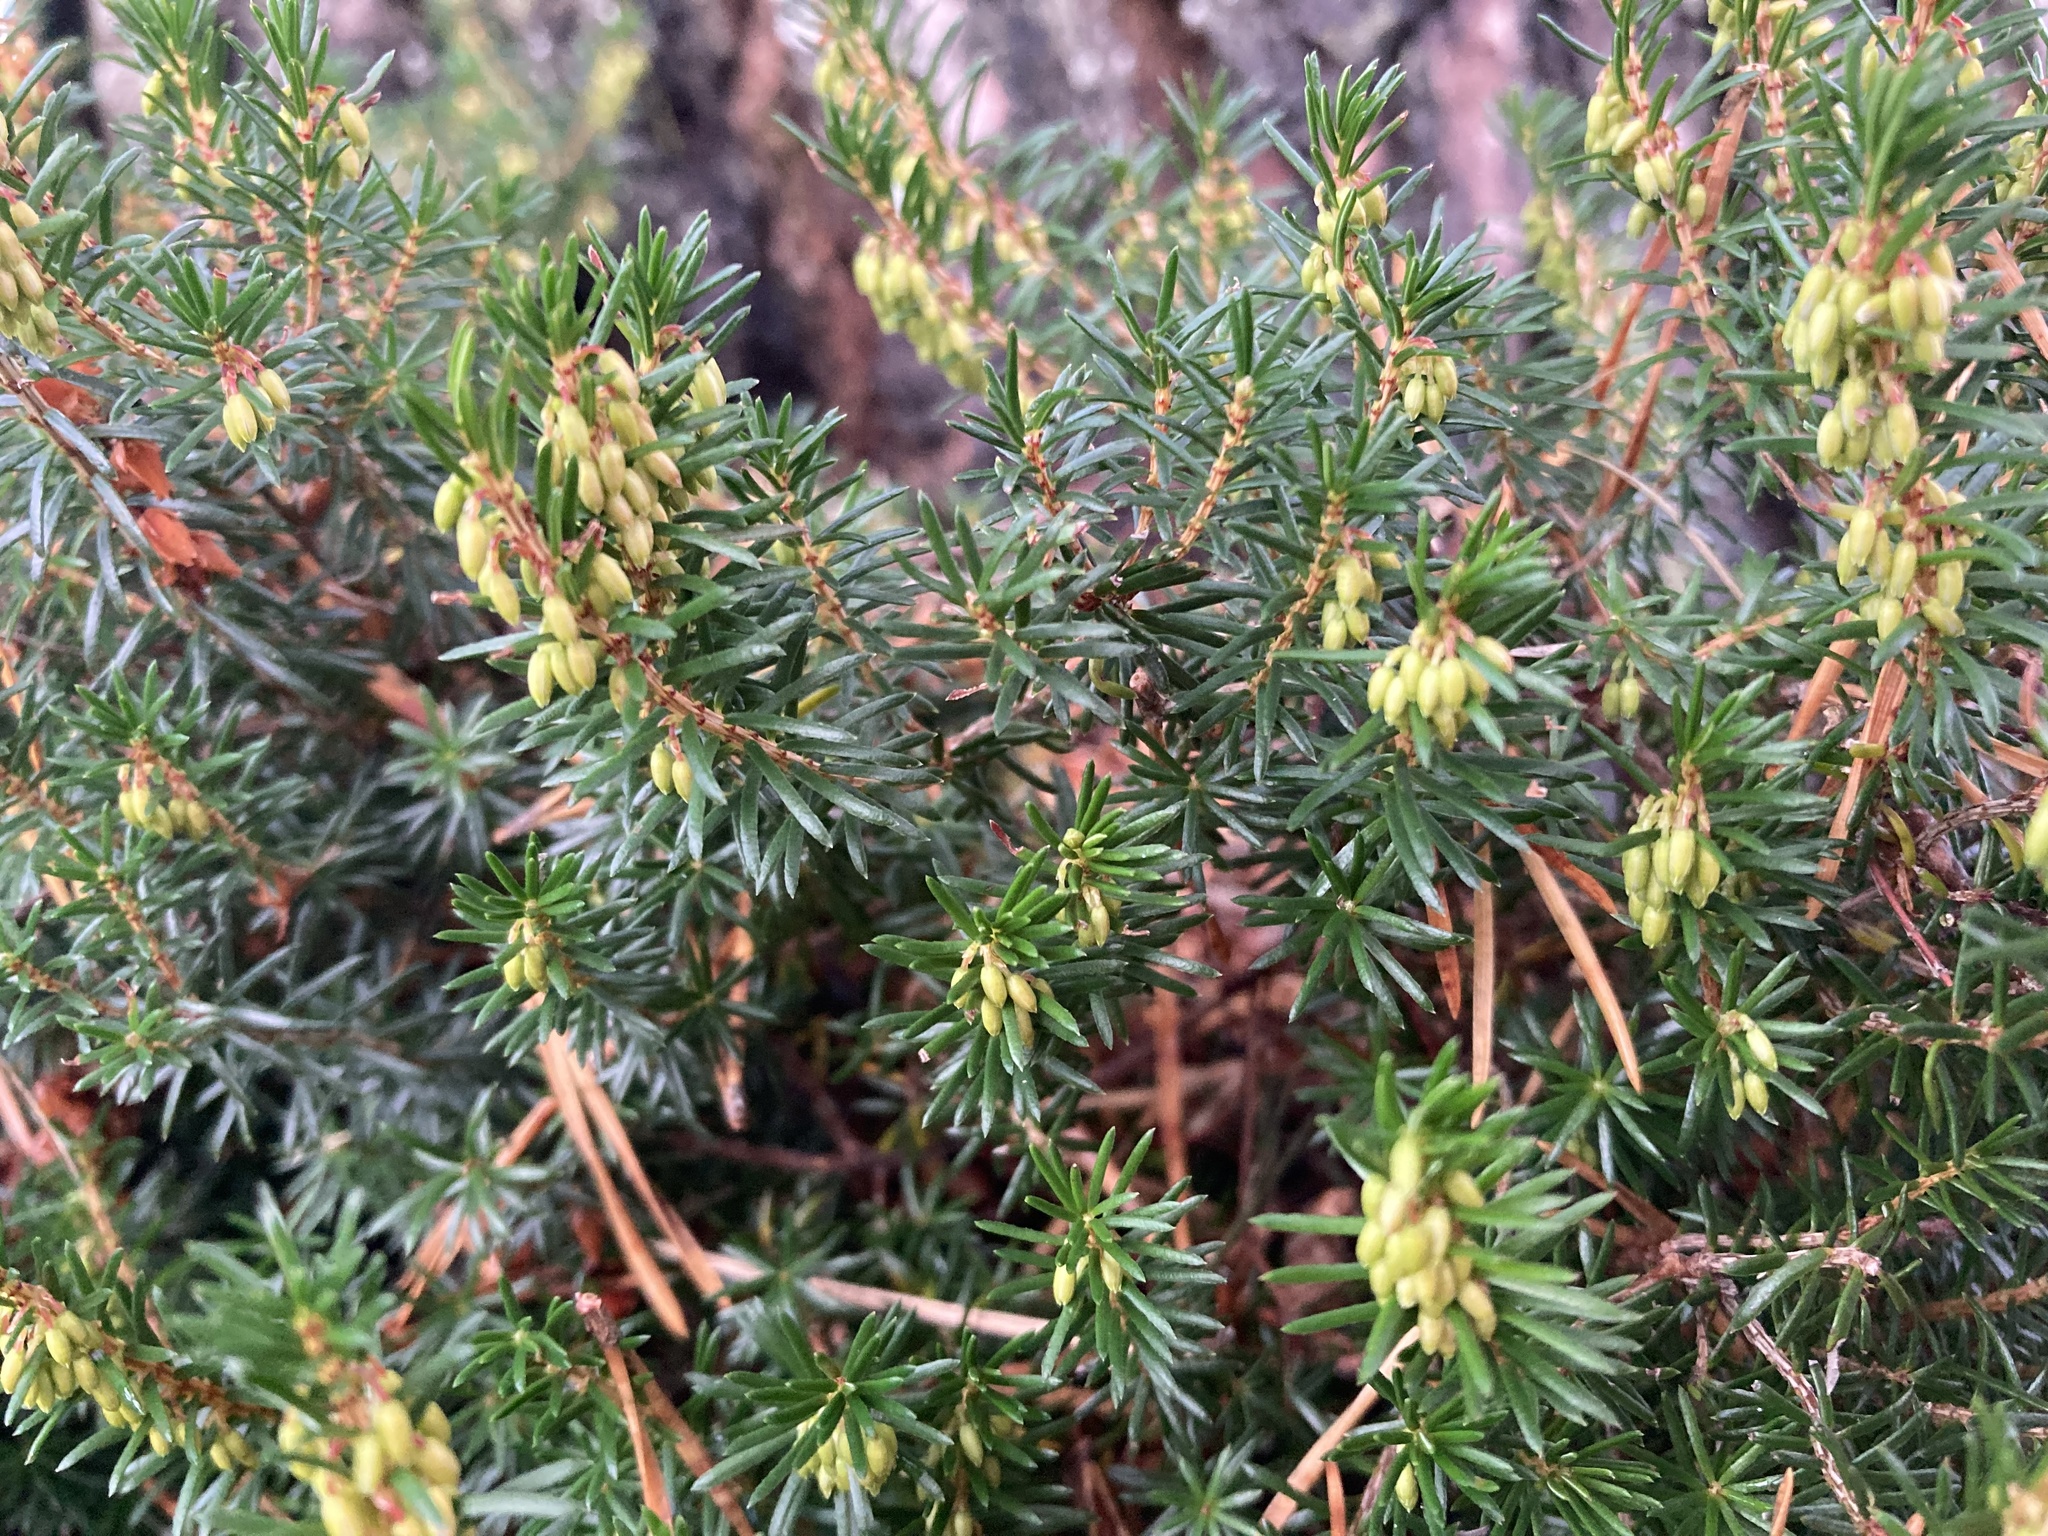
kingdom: Plantae
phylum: Tracheophyta
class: Magnoliopsida
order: Ericales
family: Ericaceae
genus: Erica
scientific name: Erica carnea
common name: Winter heath
